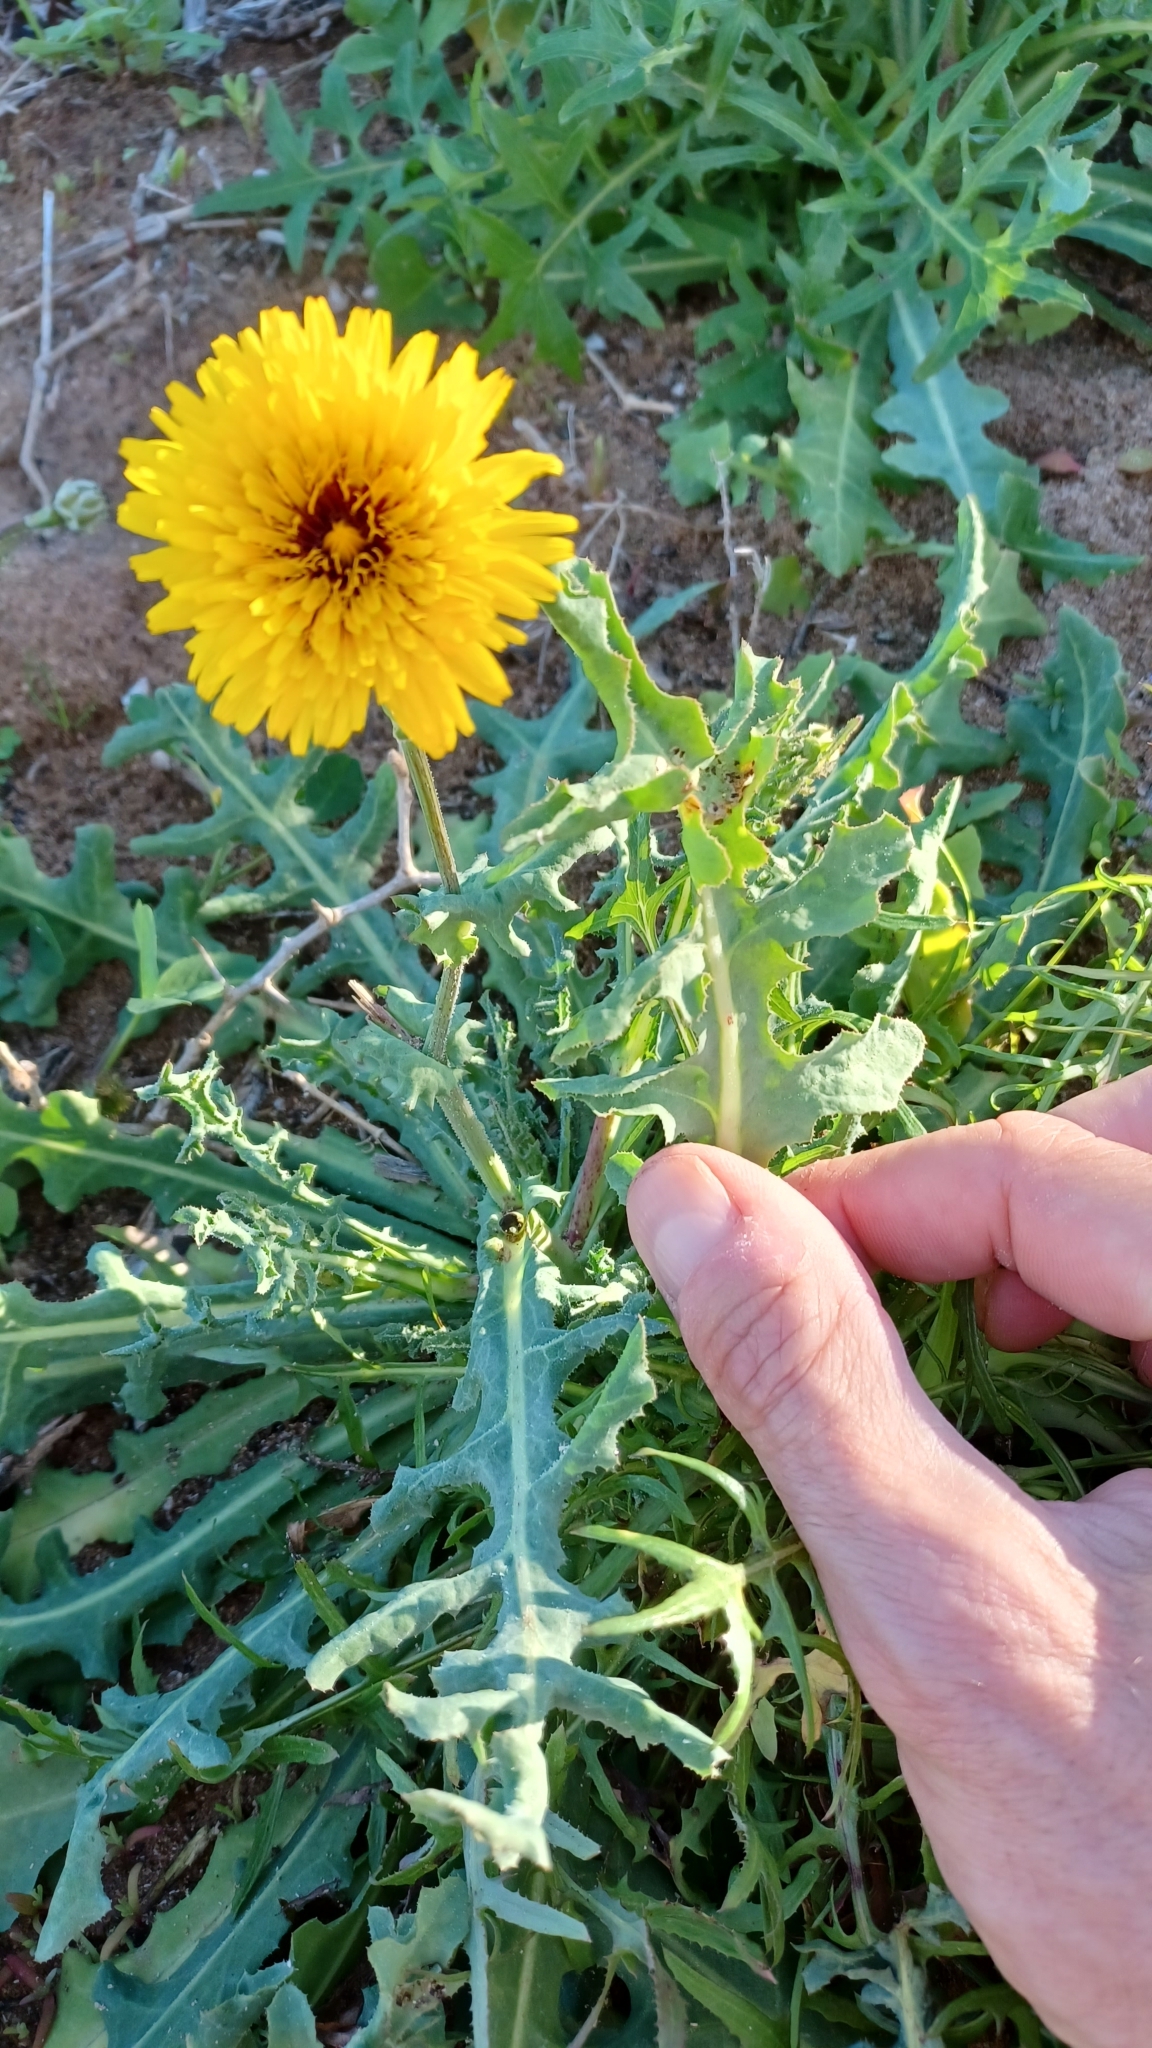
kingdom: Plantae
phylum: Tracheophyta
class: Magnoliopsida
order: Asterales
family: Asteraceae
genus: Reichardia
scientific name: Reichardia tingitana
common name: Reichardia
